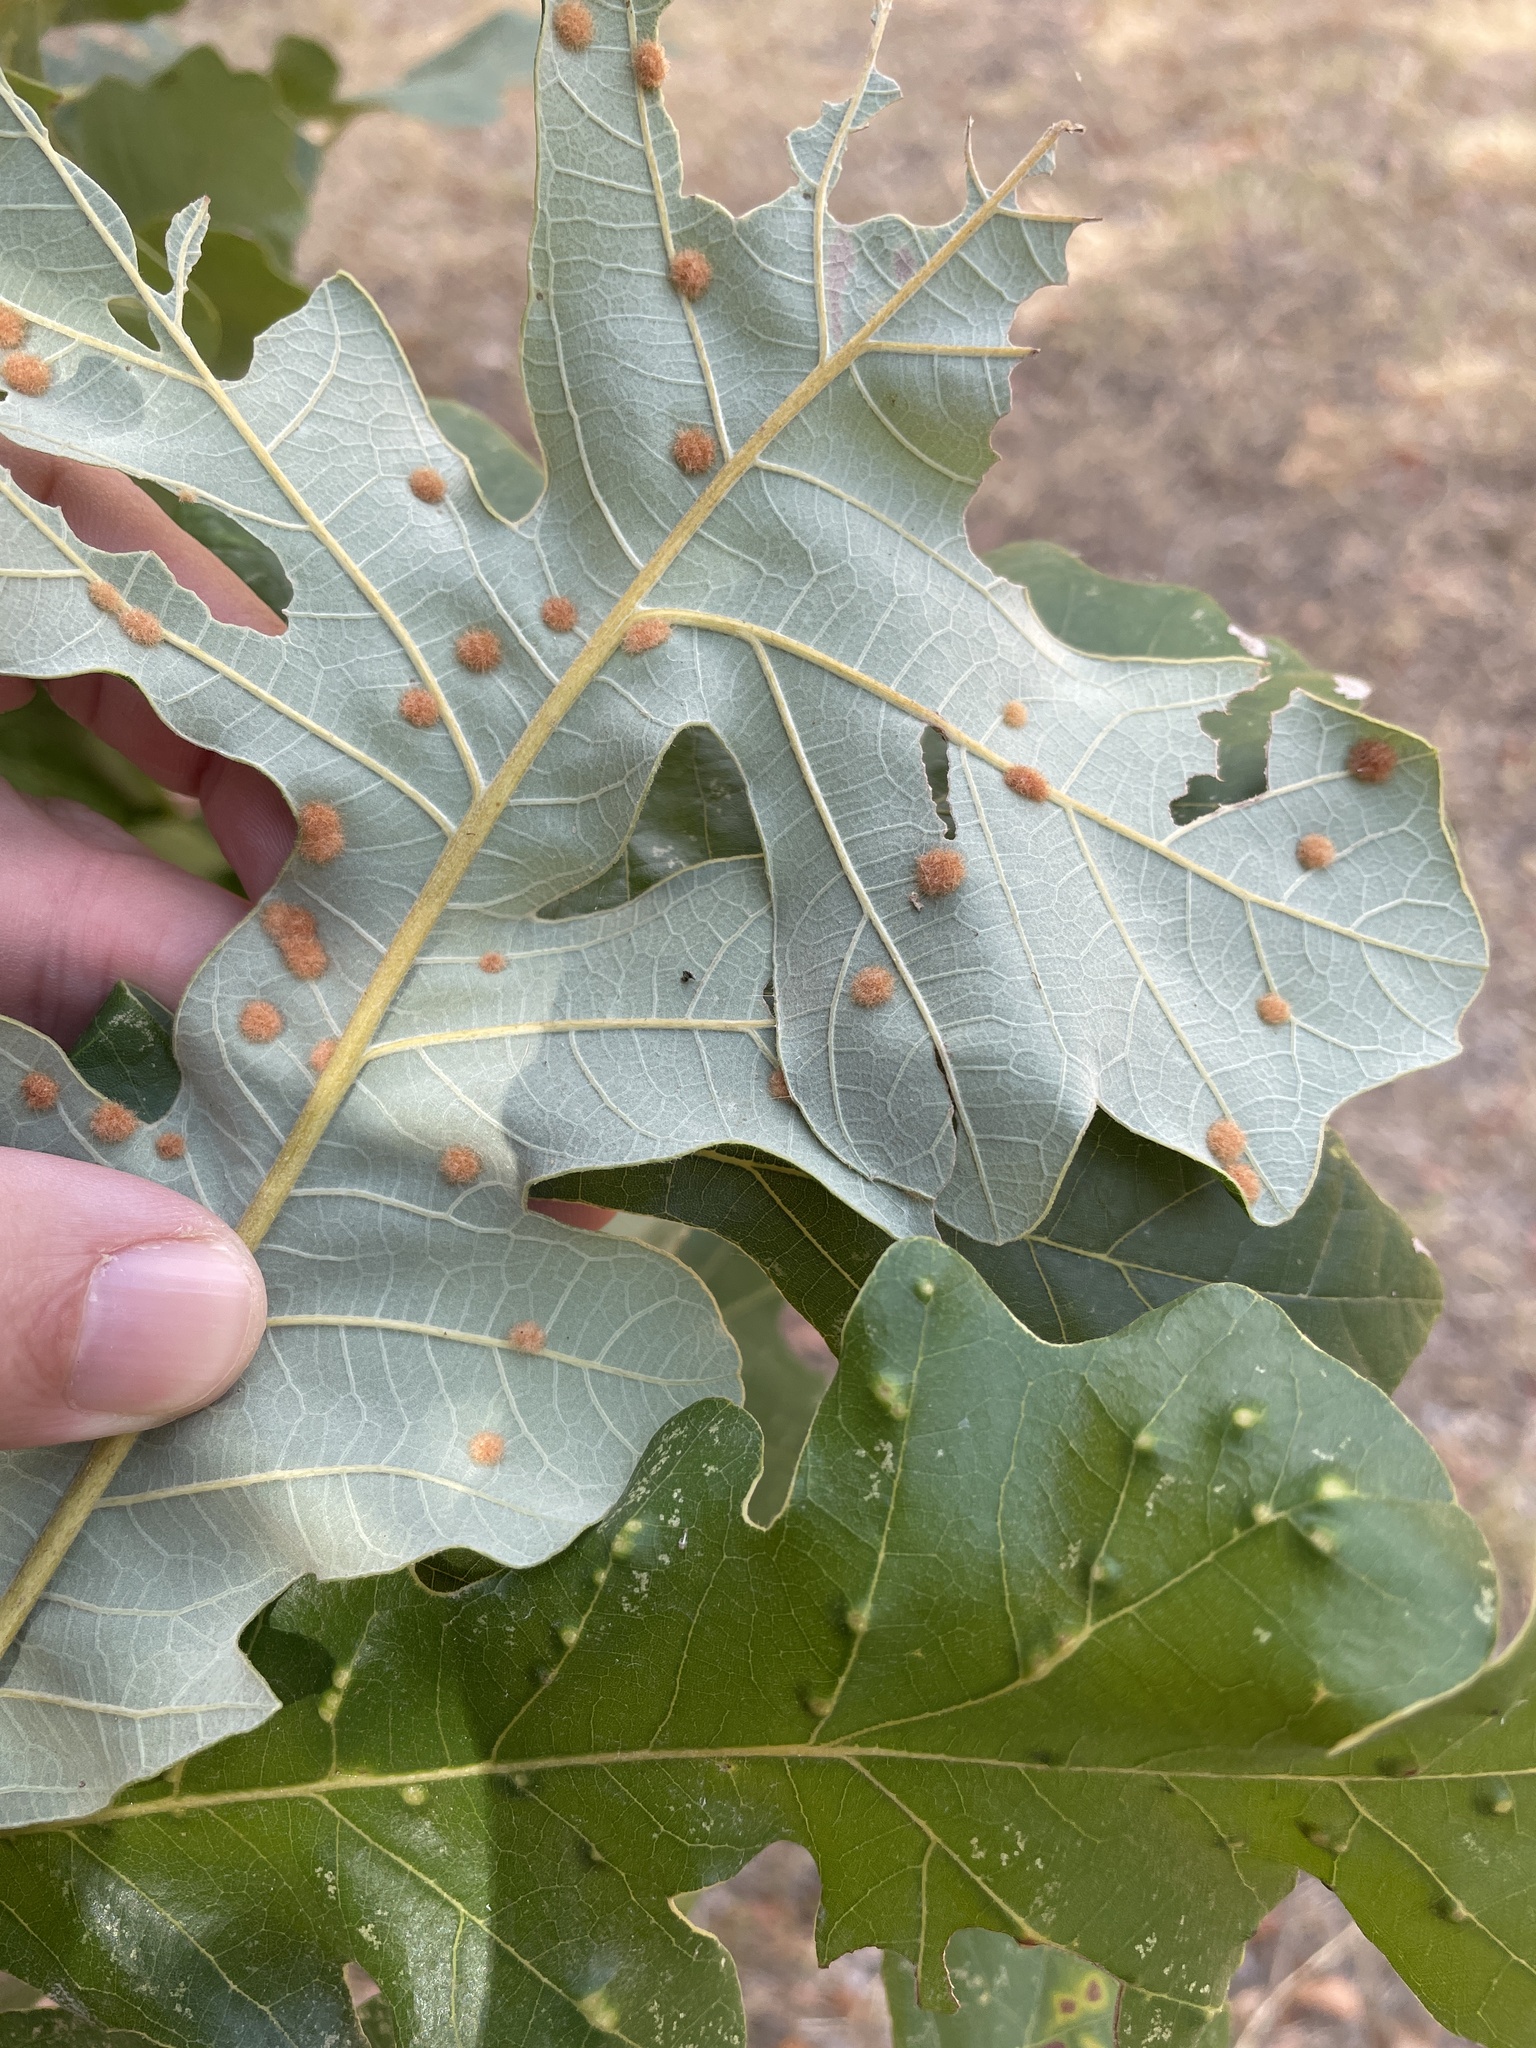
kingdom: Animalia
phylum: Arthropoda
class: Insecta
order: Hymenoptera
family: Cynipidae
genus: Neuroterus
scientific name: Neuroterus quercusverrucarum
